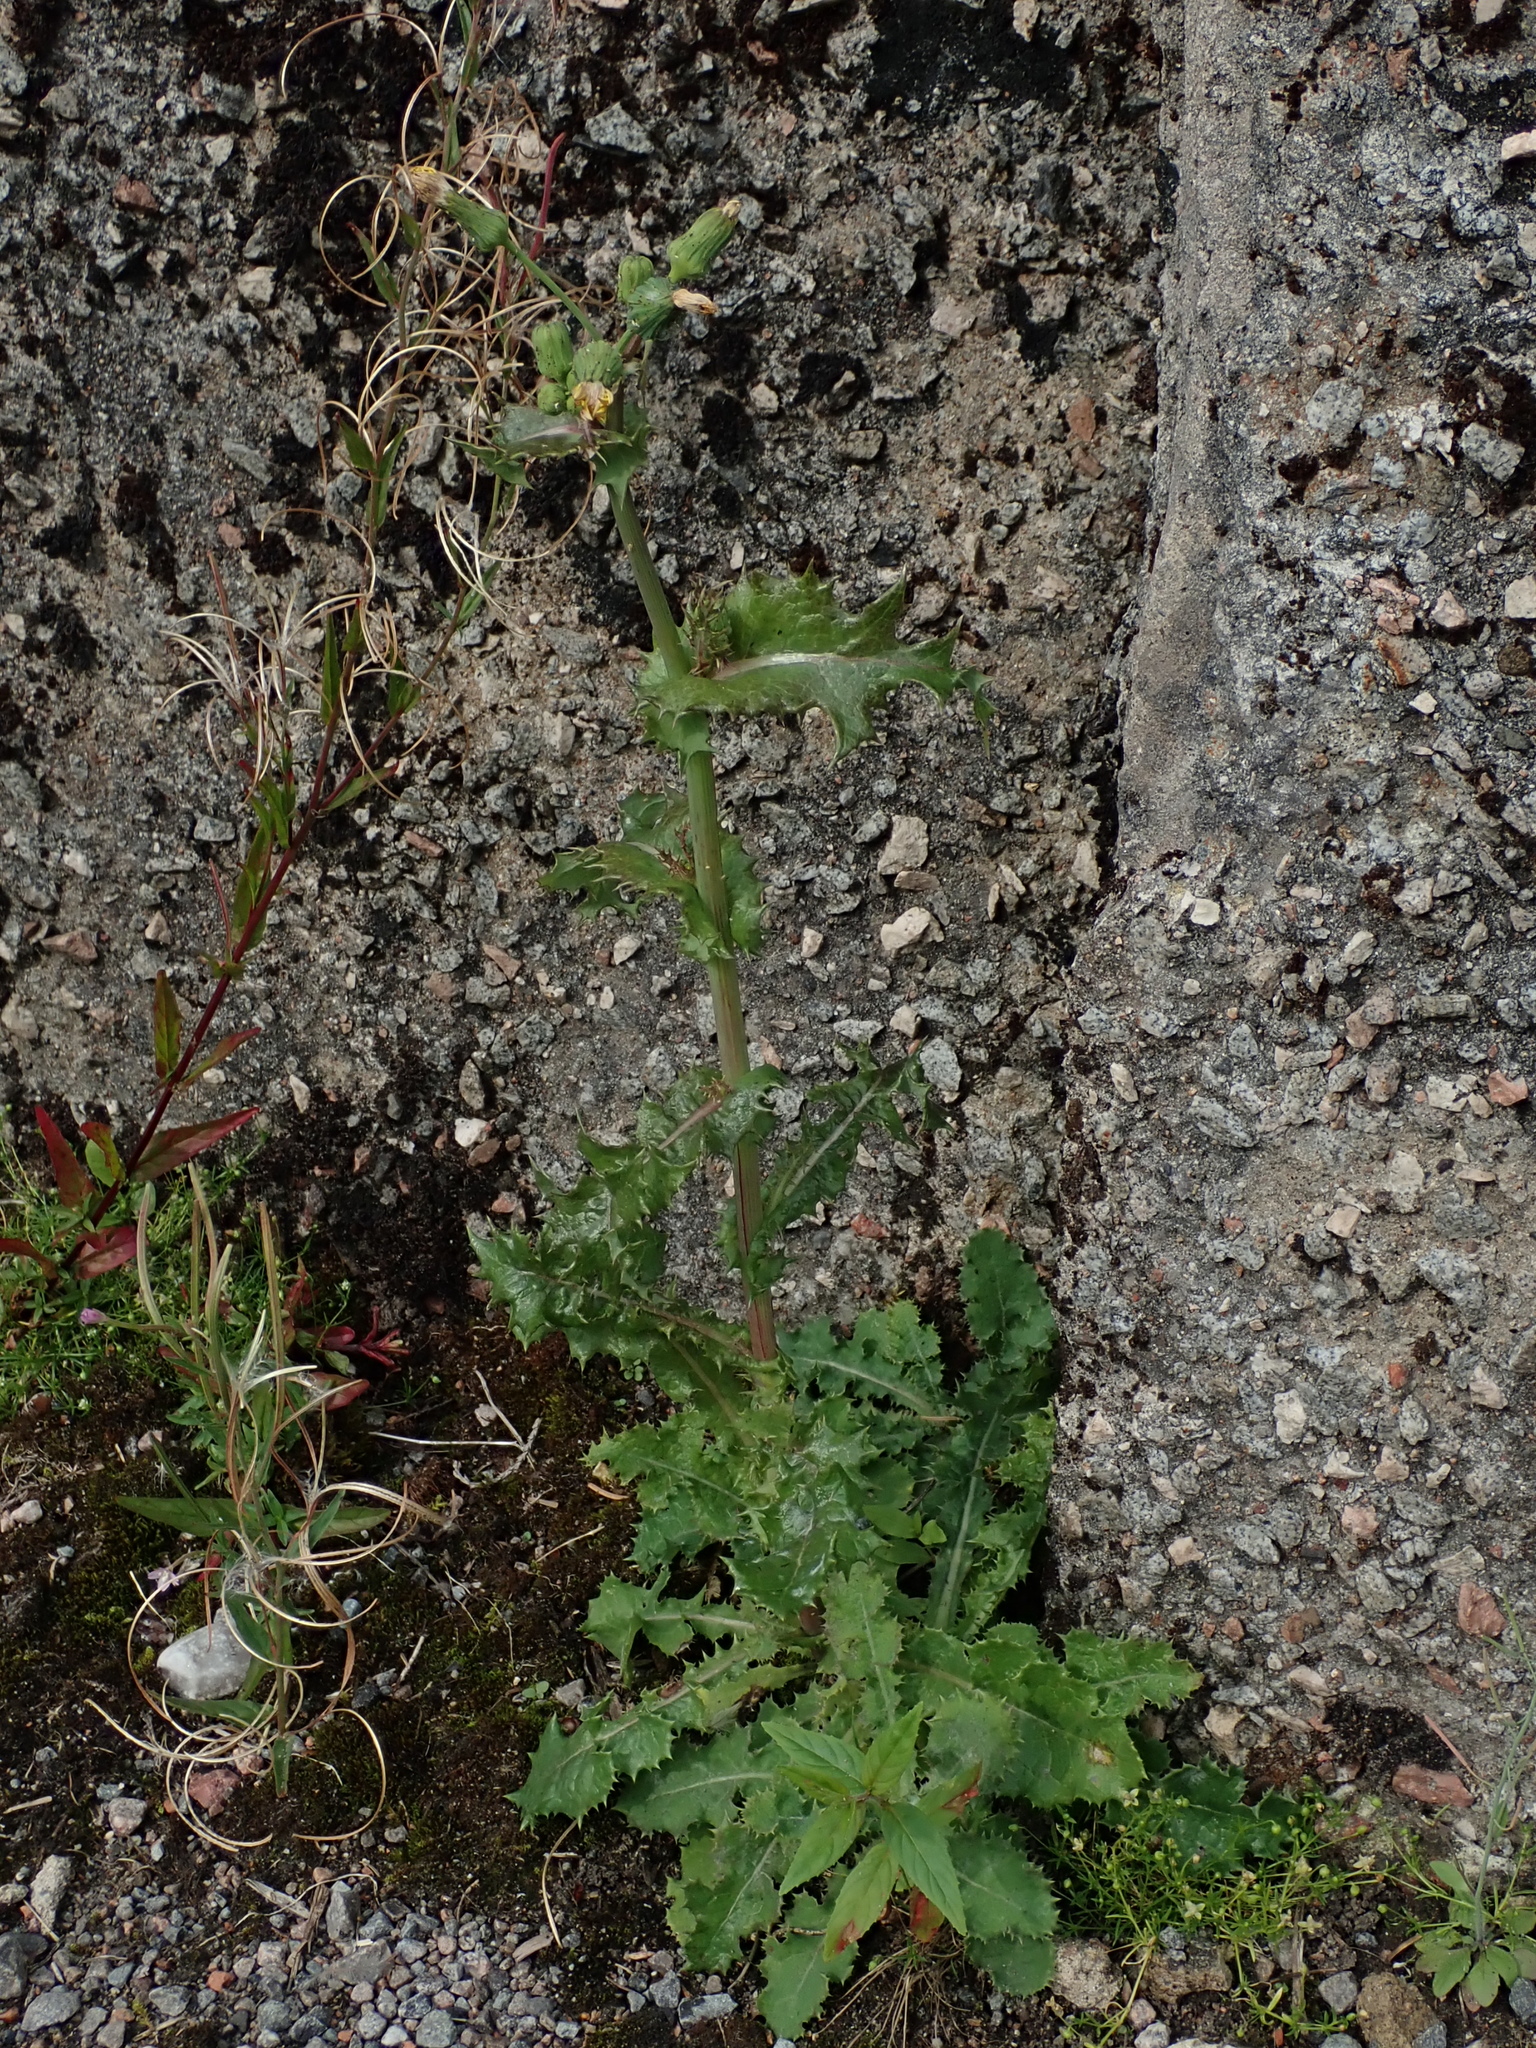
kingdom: Plantae
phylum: Tracheophyta
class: Magnoliopsida
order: Asterales
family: Asteraceae
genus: Sonchus
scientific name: Sonchus asper
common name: Prickly sow-thistle
